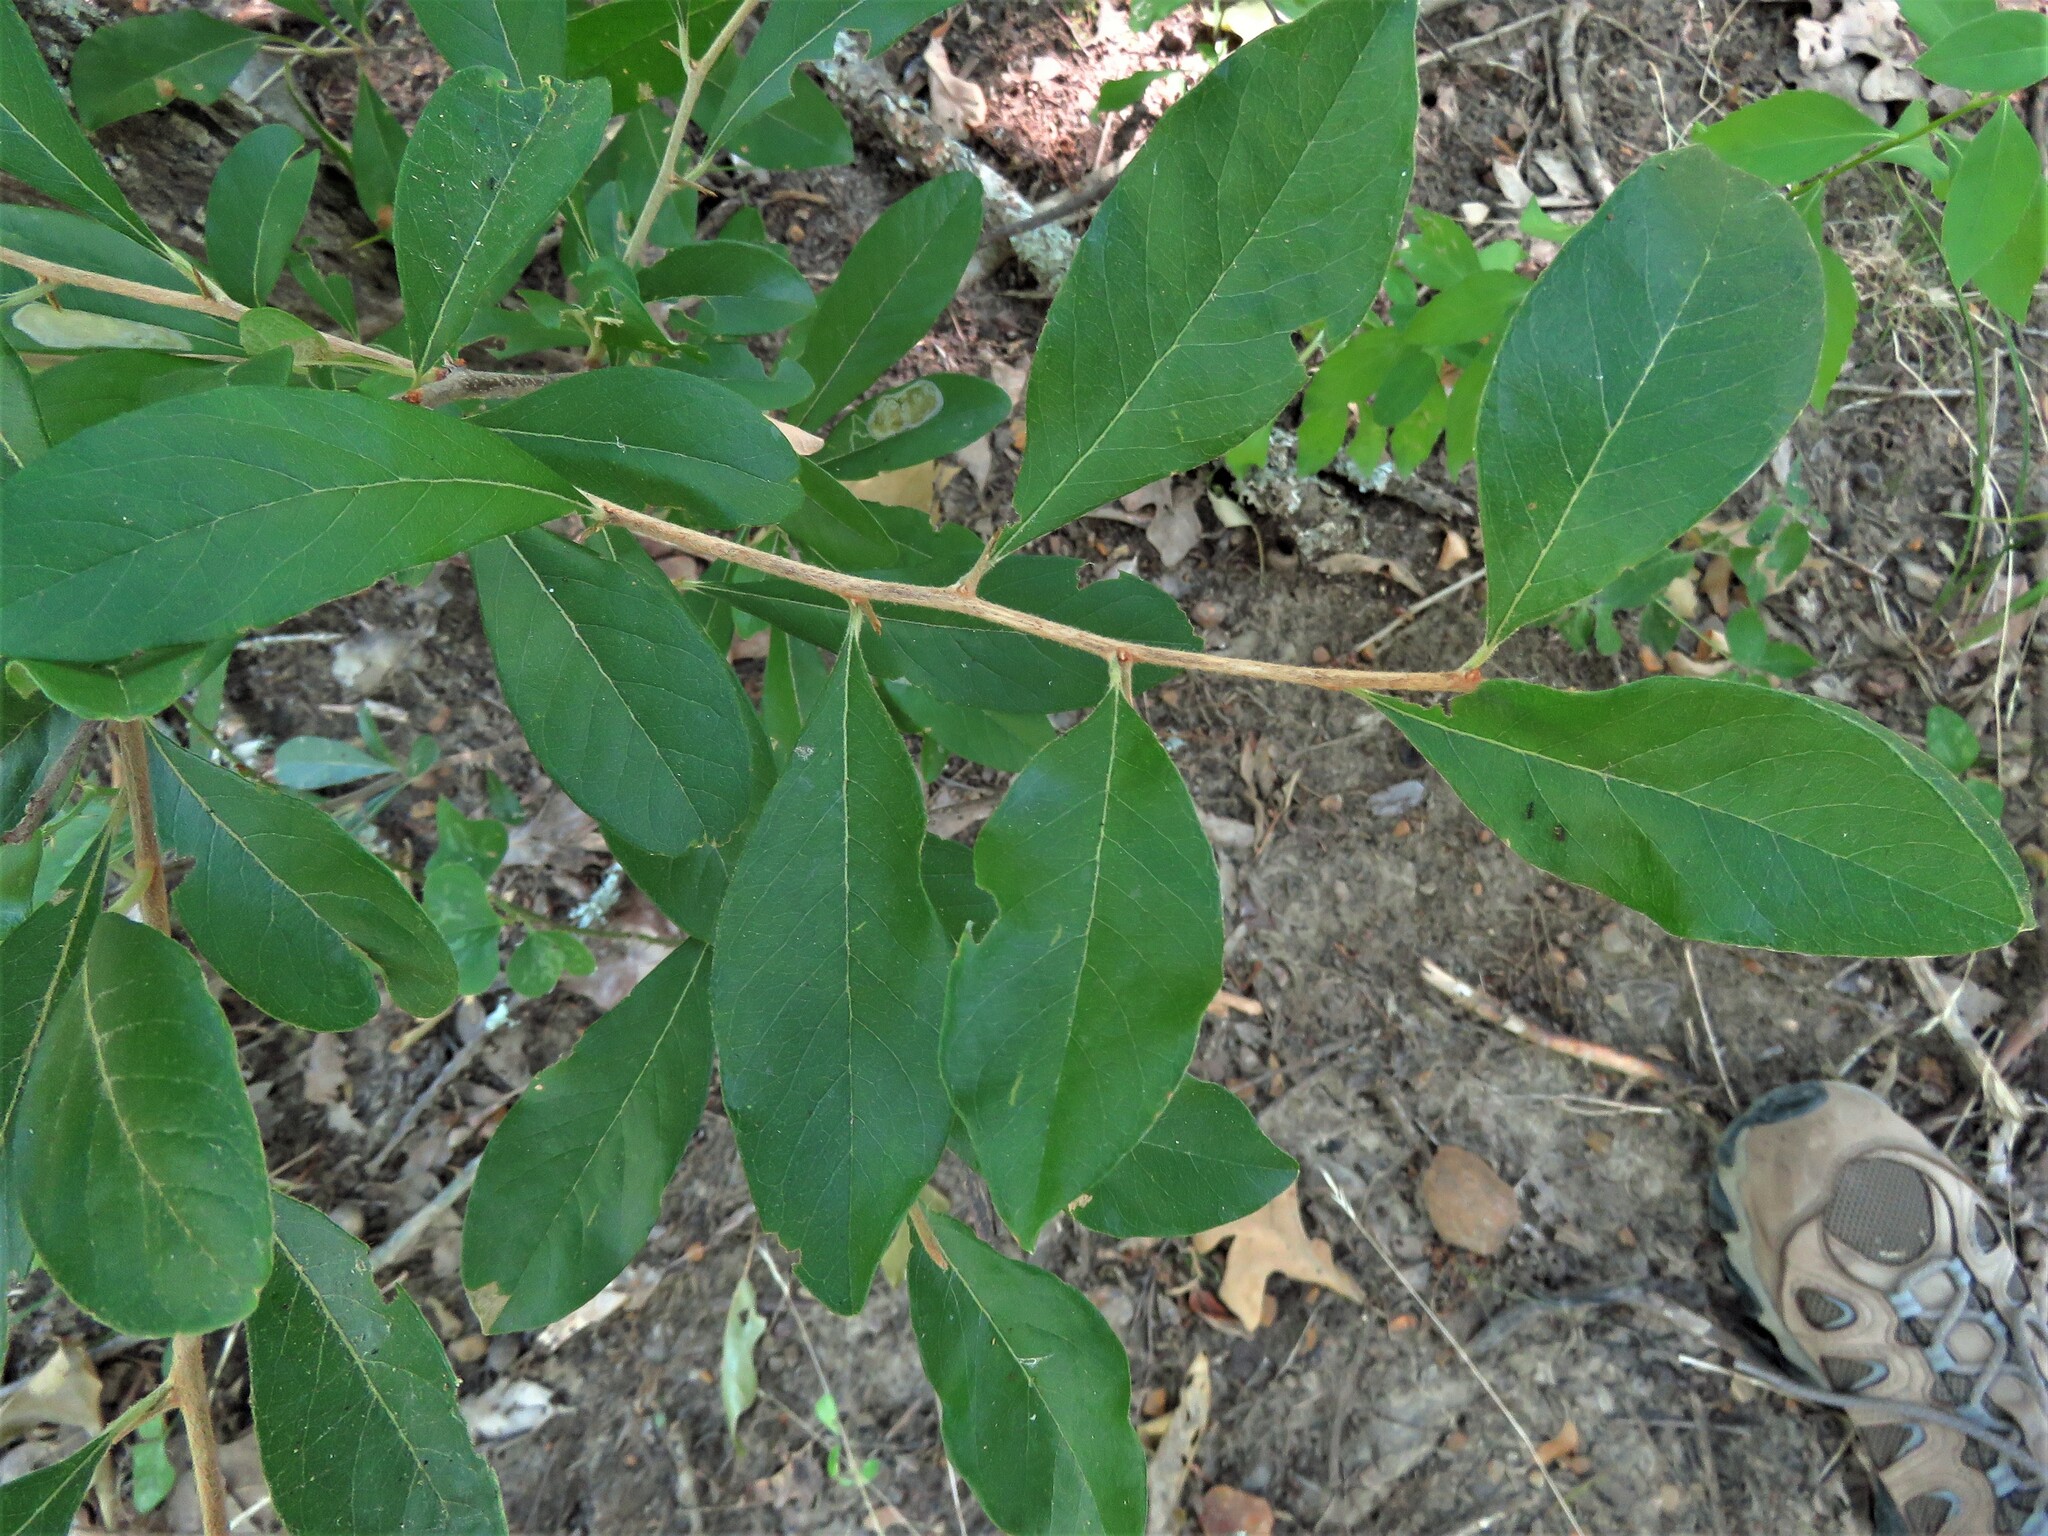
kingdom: Plantae
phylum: Tracheophyta
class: Magnoliopsida
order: Ericales
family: Sapotaceae
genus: Sideroxylon
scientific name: Sideroxylon lanuginosum
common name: Chittamwood
